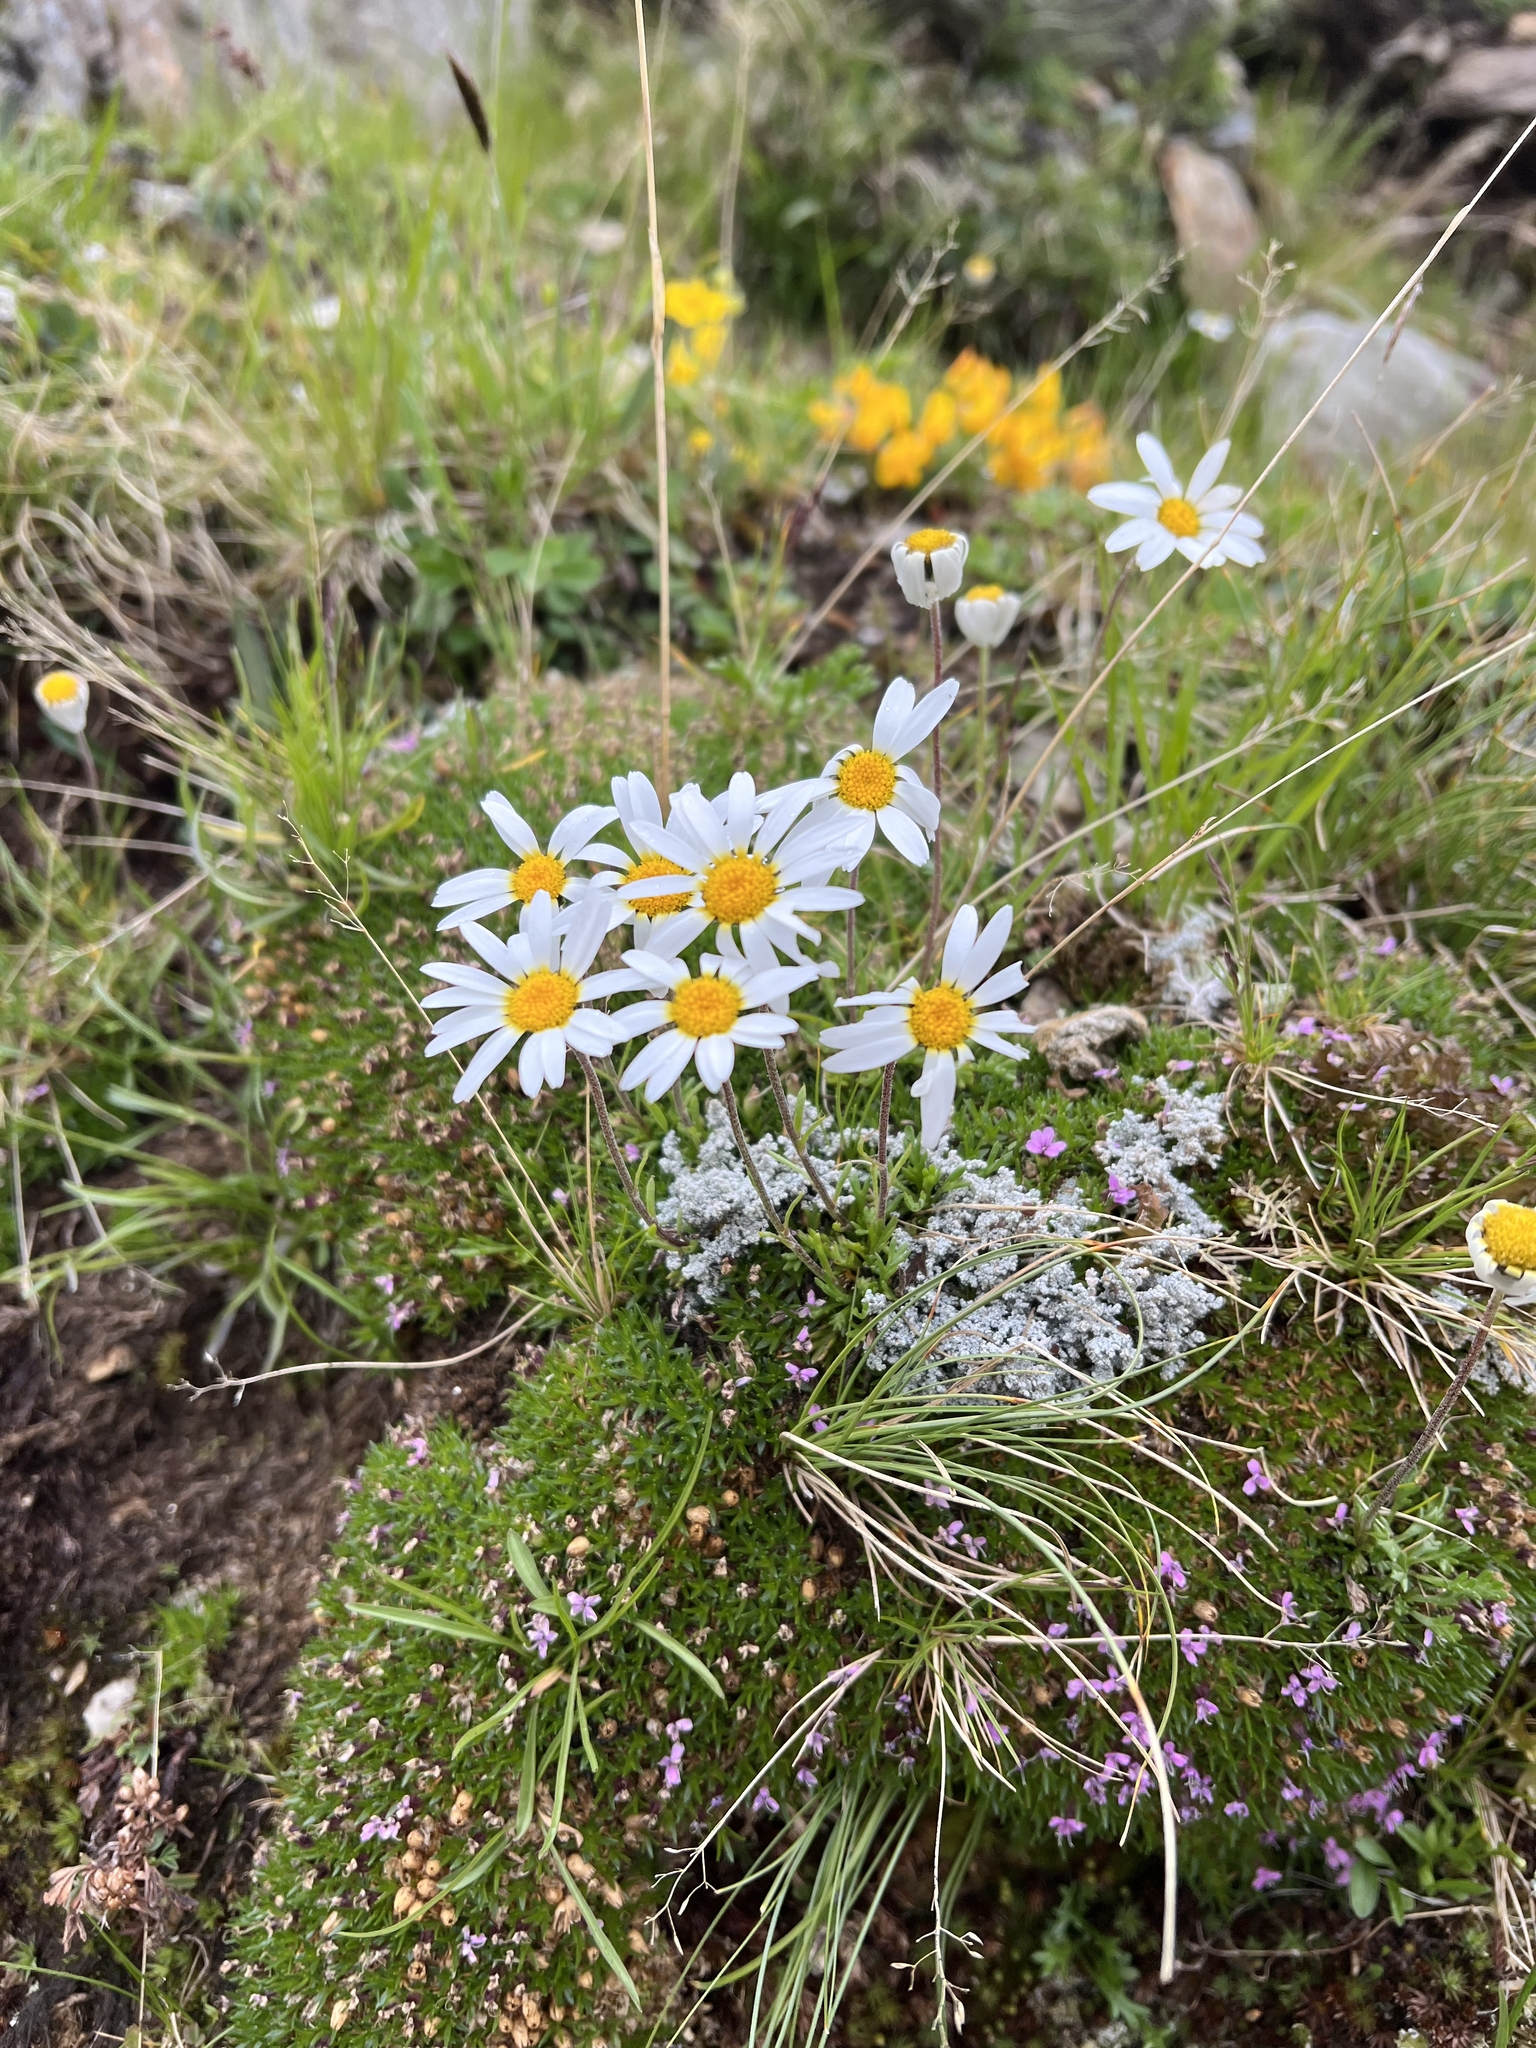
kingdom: Plantae
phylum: Tracheophyta
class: Magnoliopsida
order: Asterales
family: Asteraceae
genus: Leucanthemopsis
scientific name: Leucanthemopsis alpina
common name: Alpine moon daisy
